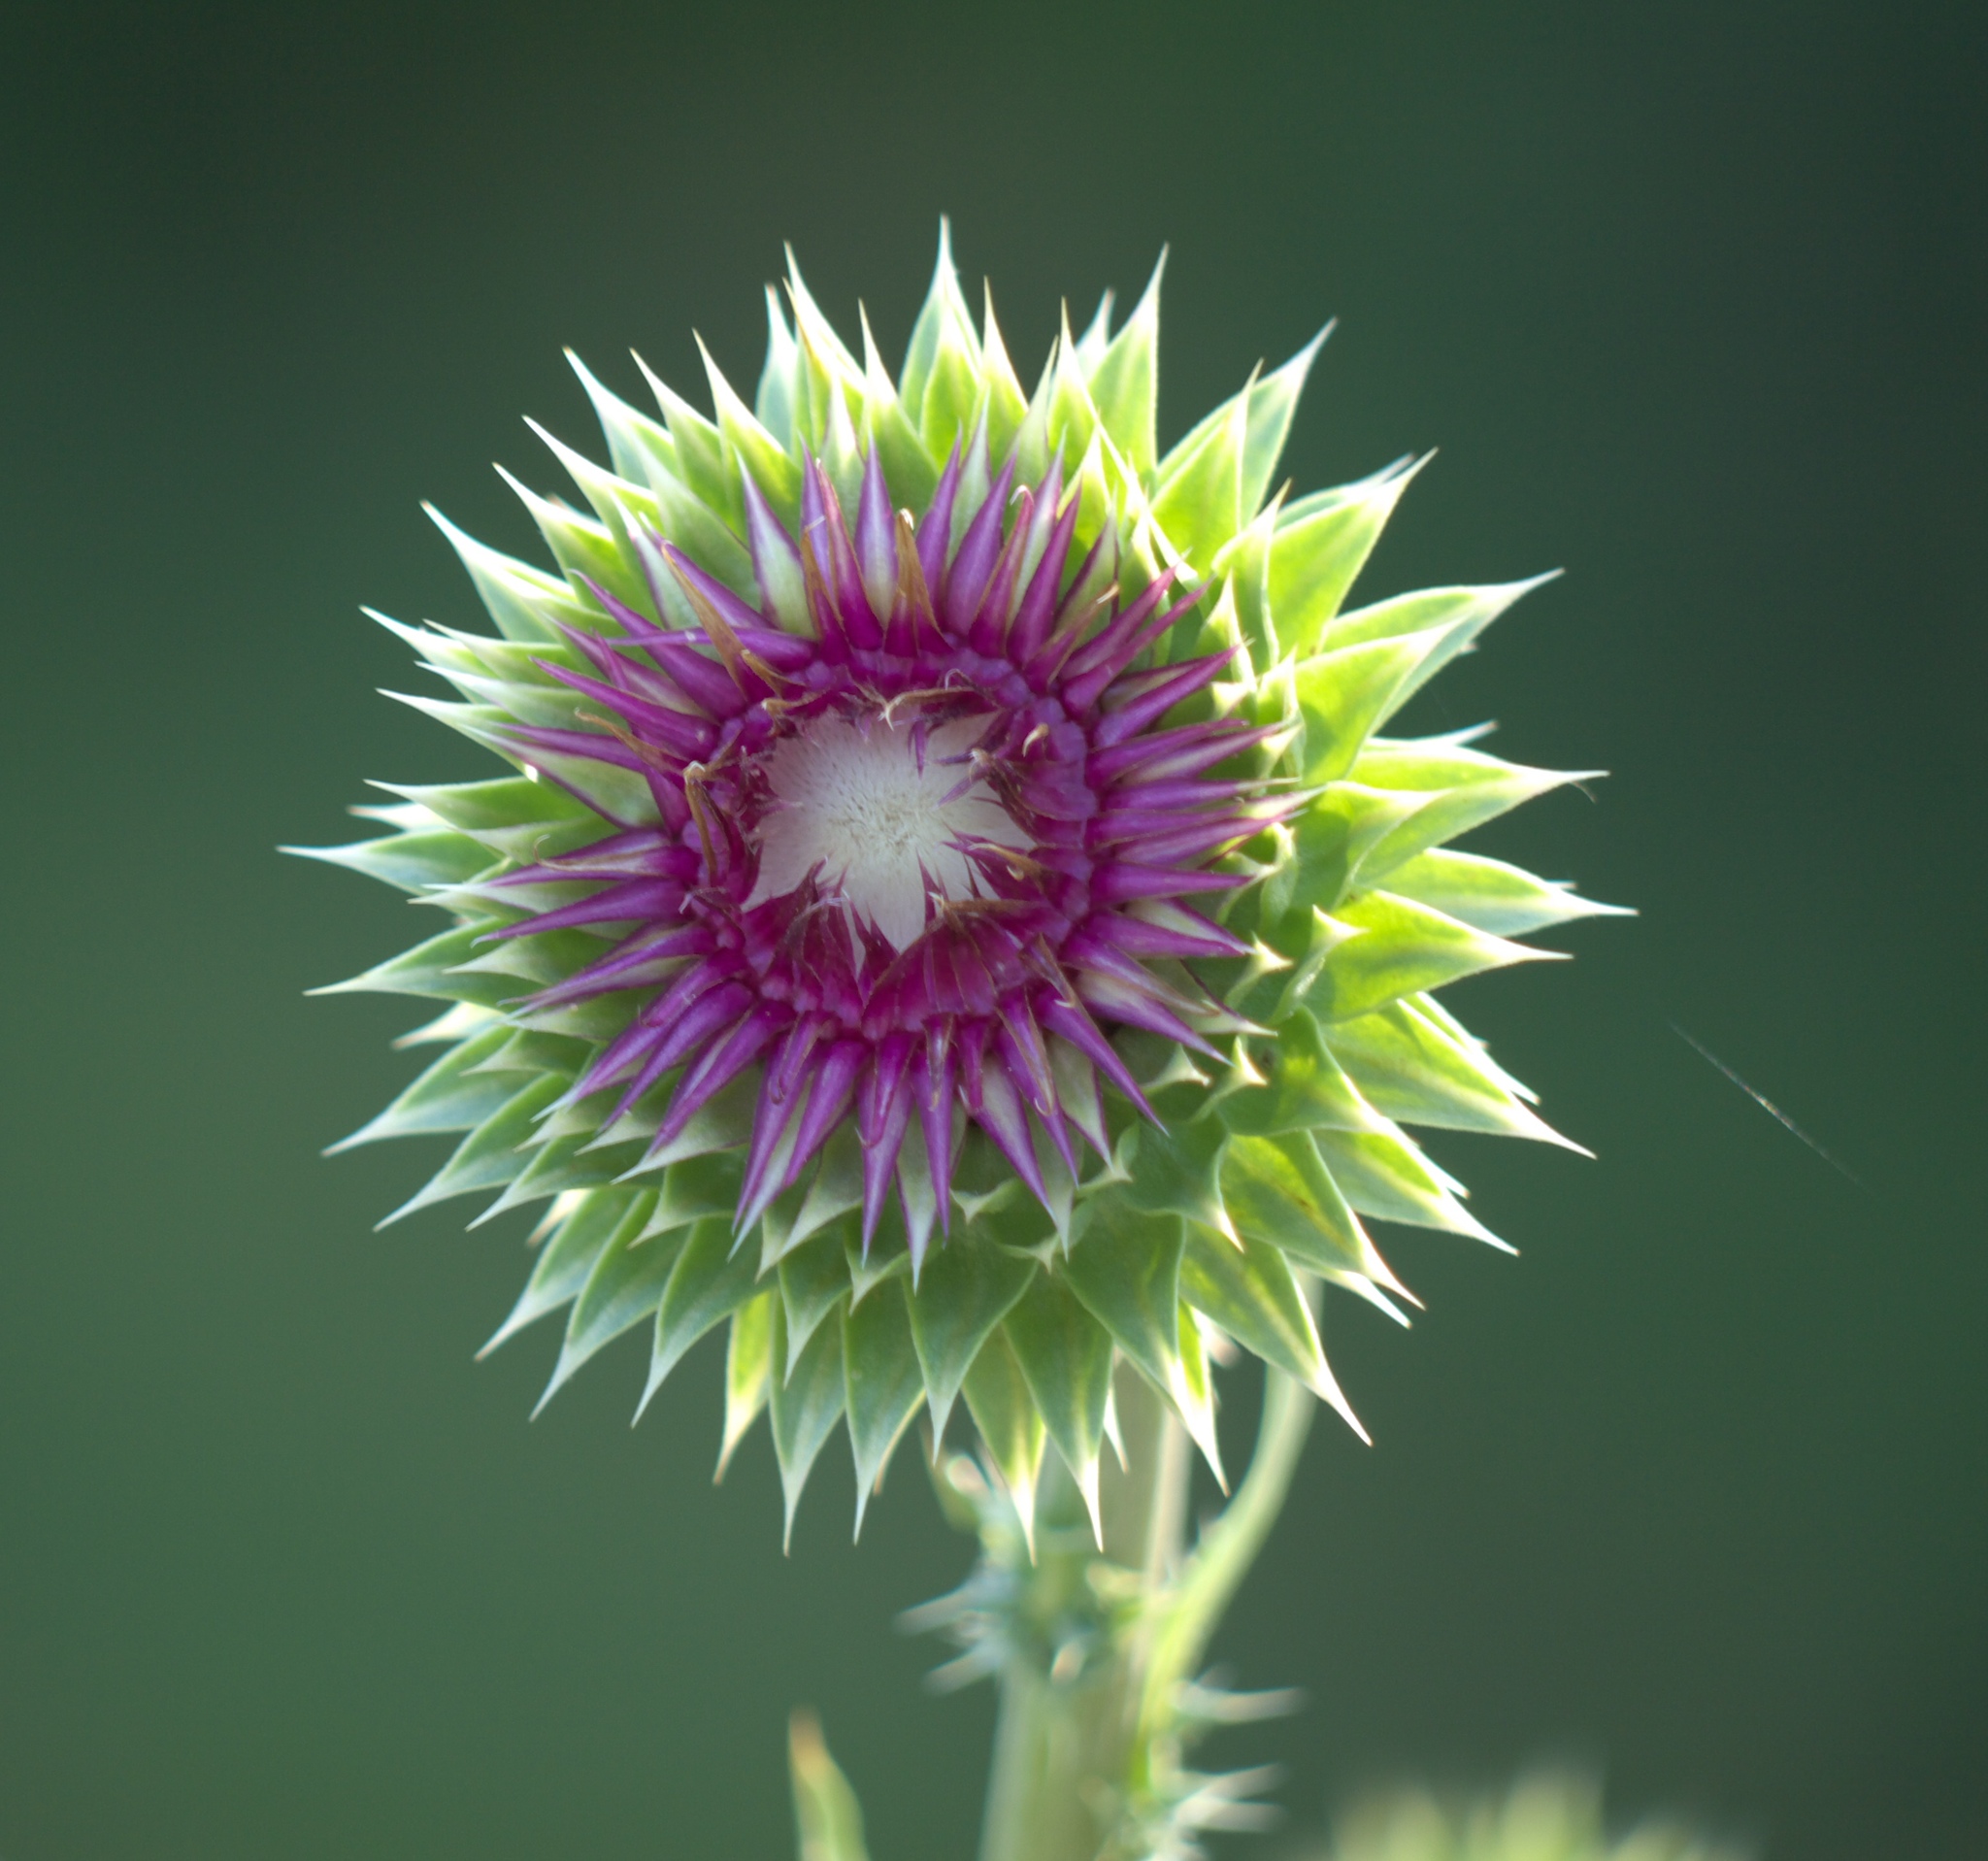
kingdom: Plantae
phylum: Tracheophyta
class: Magnoliopsida
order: Asterales
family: Asteraceae
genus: Carduus
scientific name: Carduus nutans
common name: Musk thistle
